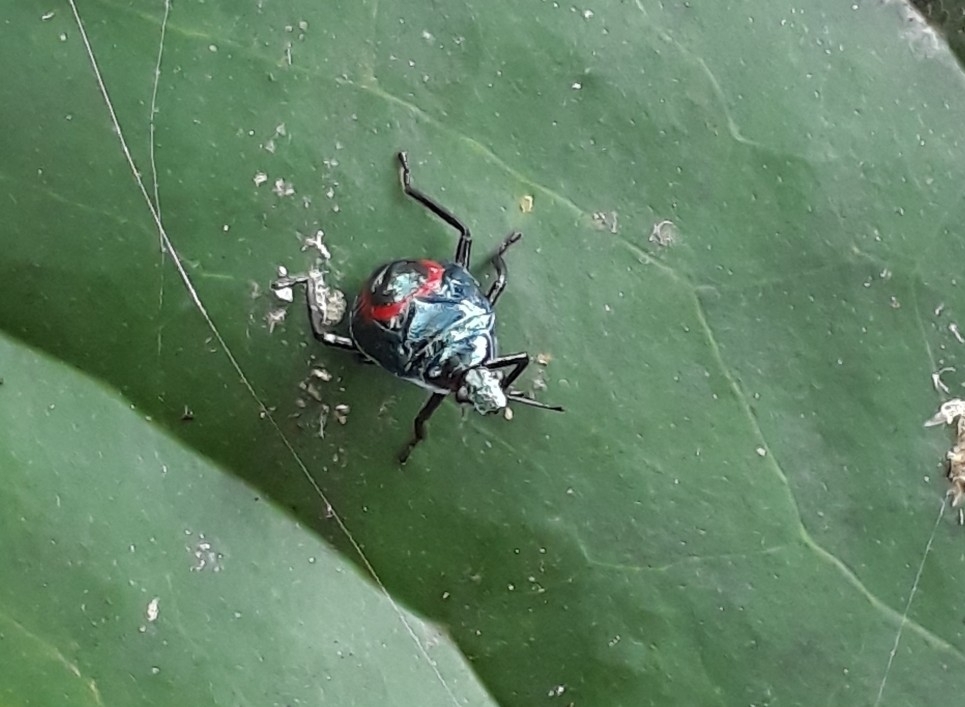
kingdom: Animalia
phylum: Arthropoda
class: Insecta
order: Hemiptera
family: Pentatomidae
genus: Euthyrhynchus
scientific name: Euthyrhynchus floridanus
